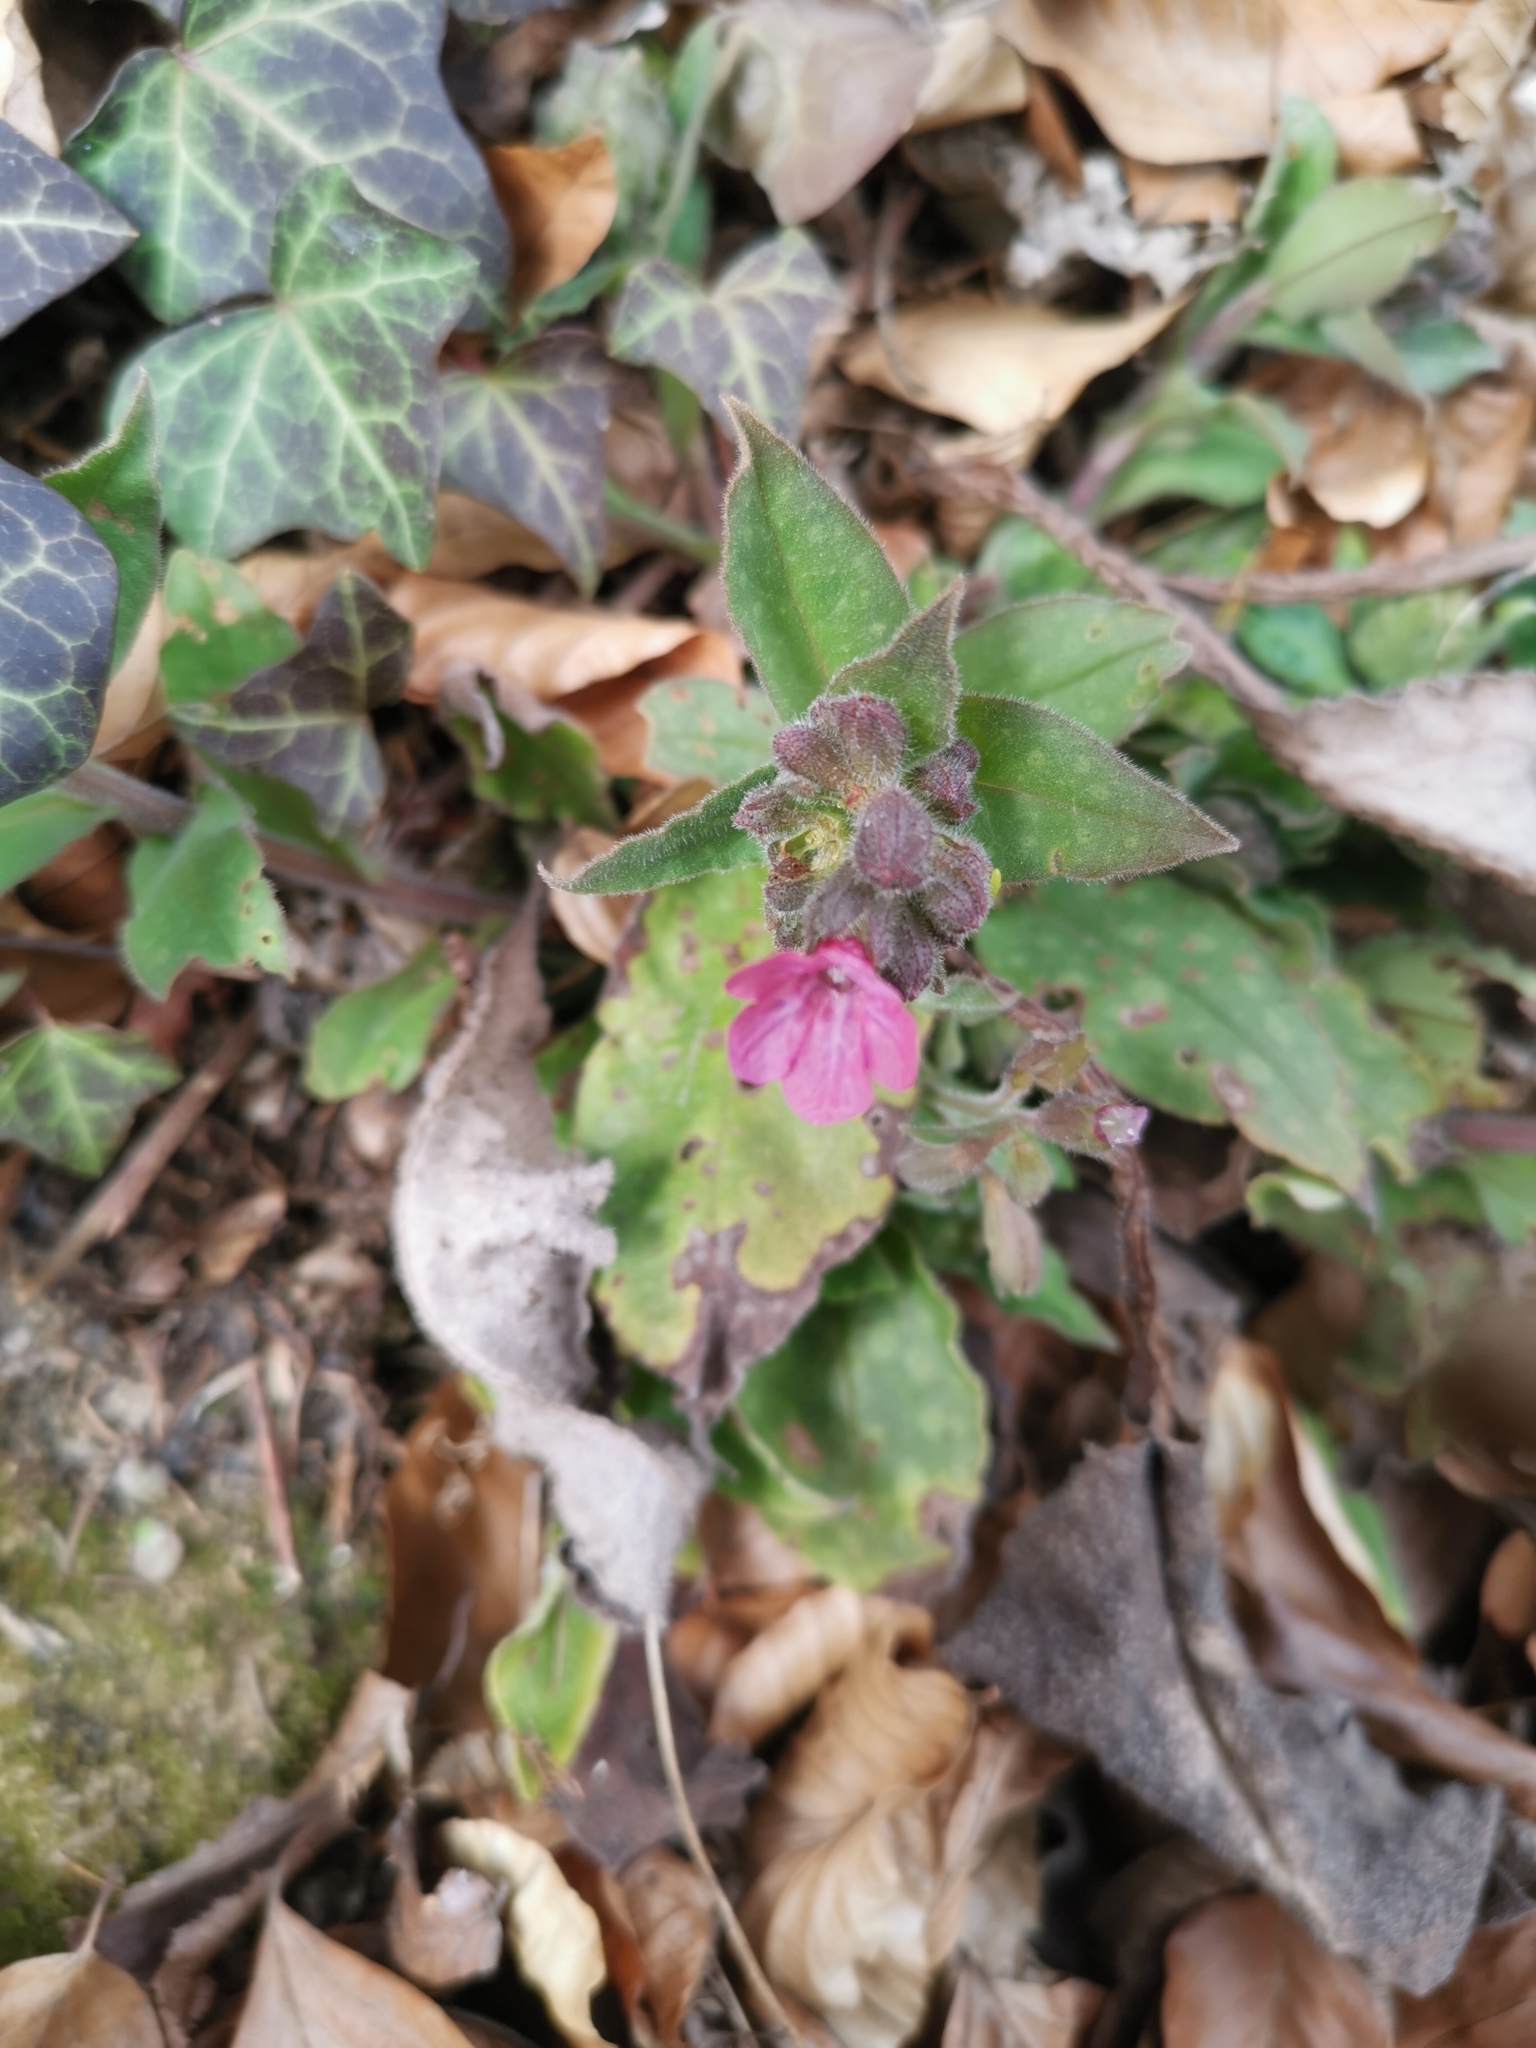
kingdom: Plantae
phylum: Tracheophyta
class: Magnoliopsida
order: Boraginales
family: Boraginaceae
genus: Pulmonaria
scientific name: Pulmonaria officinalis
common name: Lungwort
